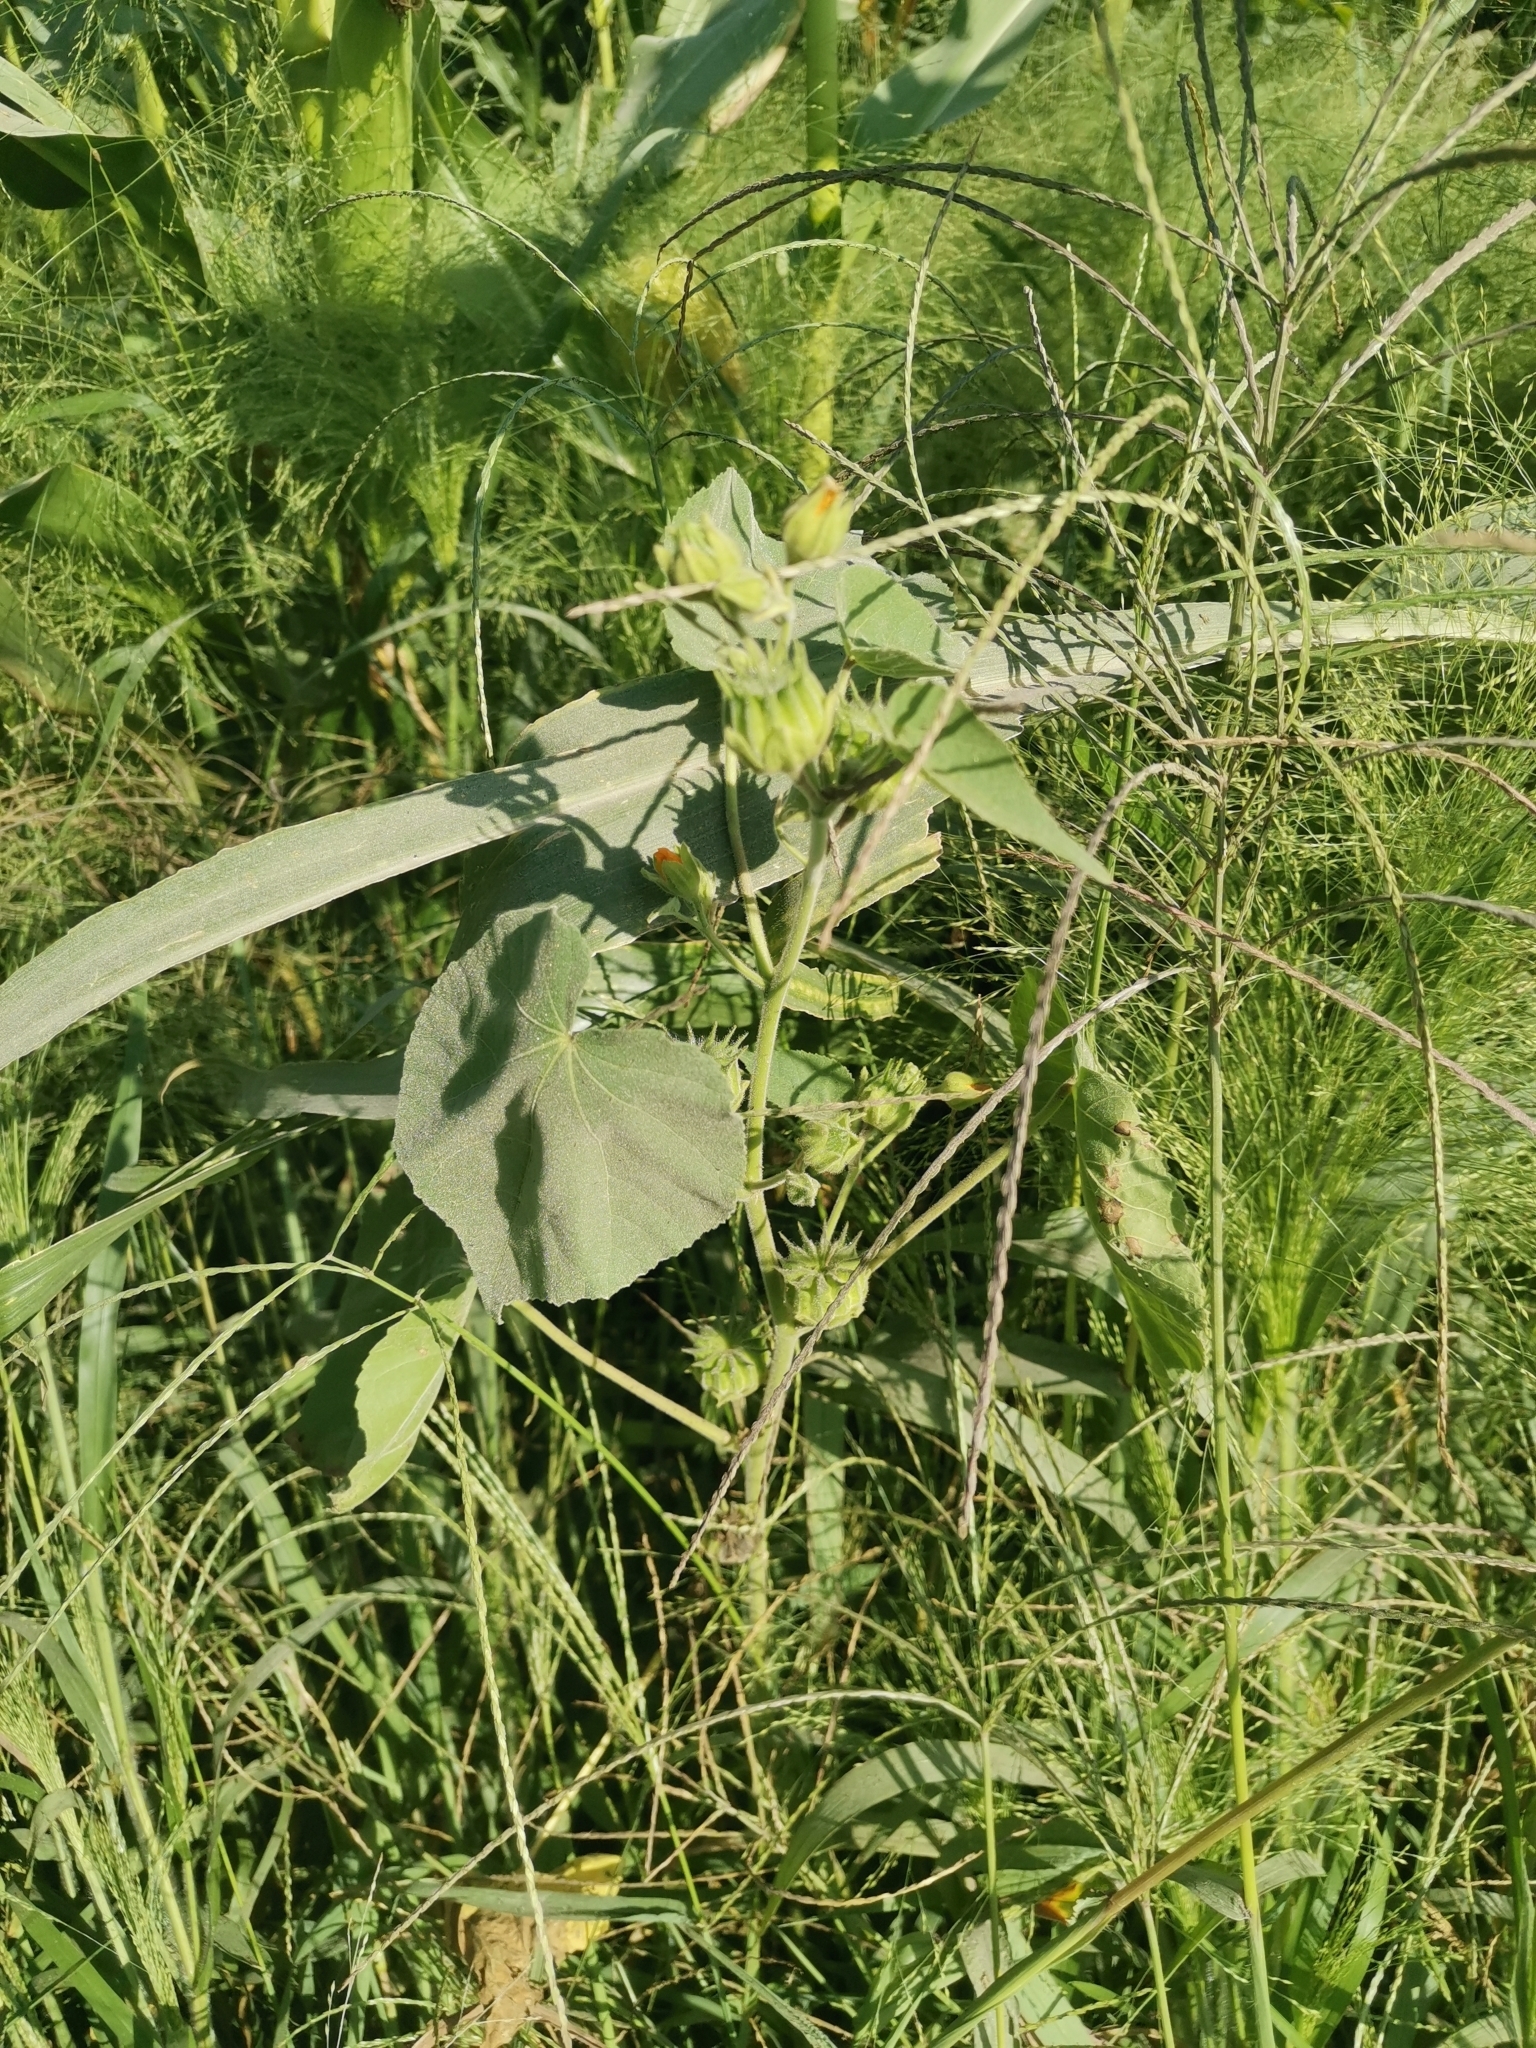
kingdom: Plantae
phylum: Tracheophyta
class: Magnoliopsida
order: Malvales
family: Malvaceae
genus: Abutilon
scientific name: Abutilon theophrasti
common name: Velvetleaf
